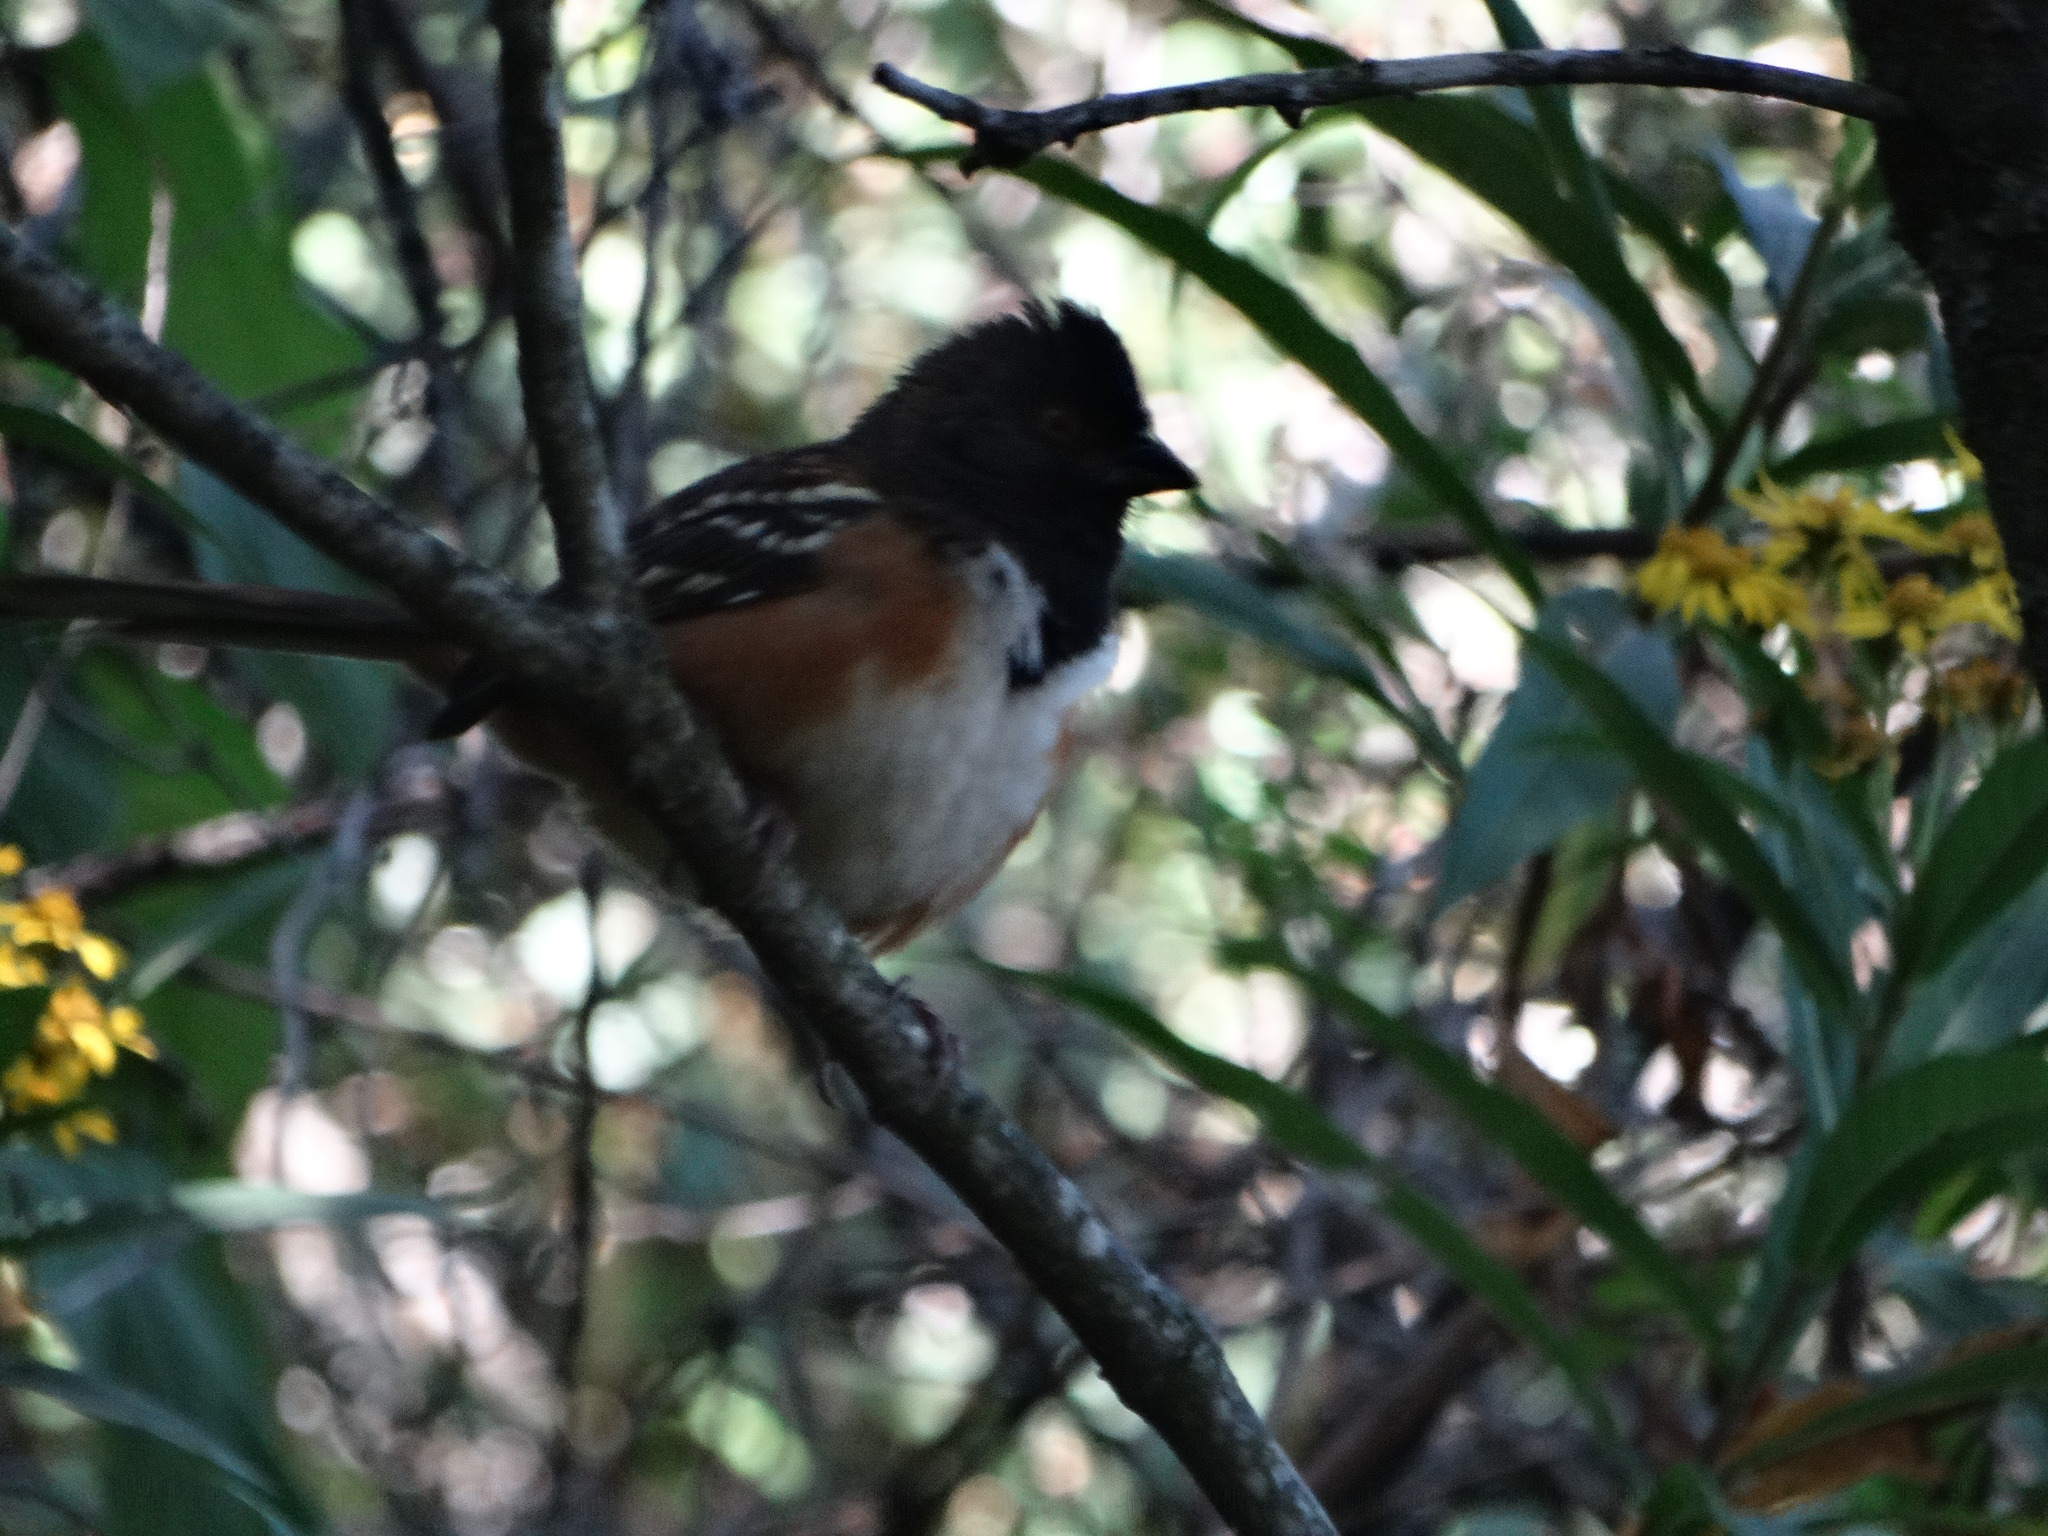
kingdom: Animalia
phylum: Chordata
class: Aves
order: Passeriformes
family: Passerellidae
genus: Pipilo
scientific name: Pipilo maculatus
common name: Spotted towhee
